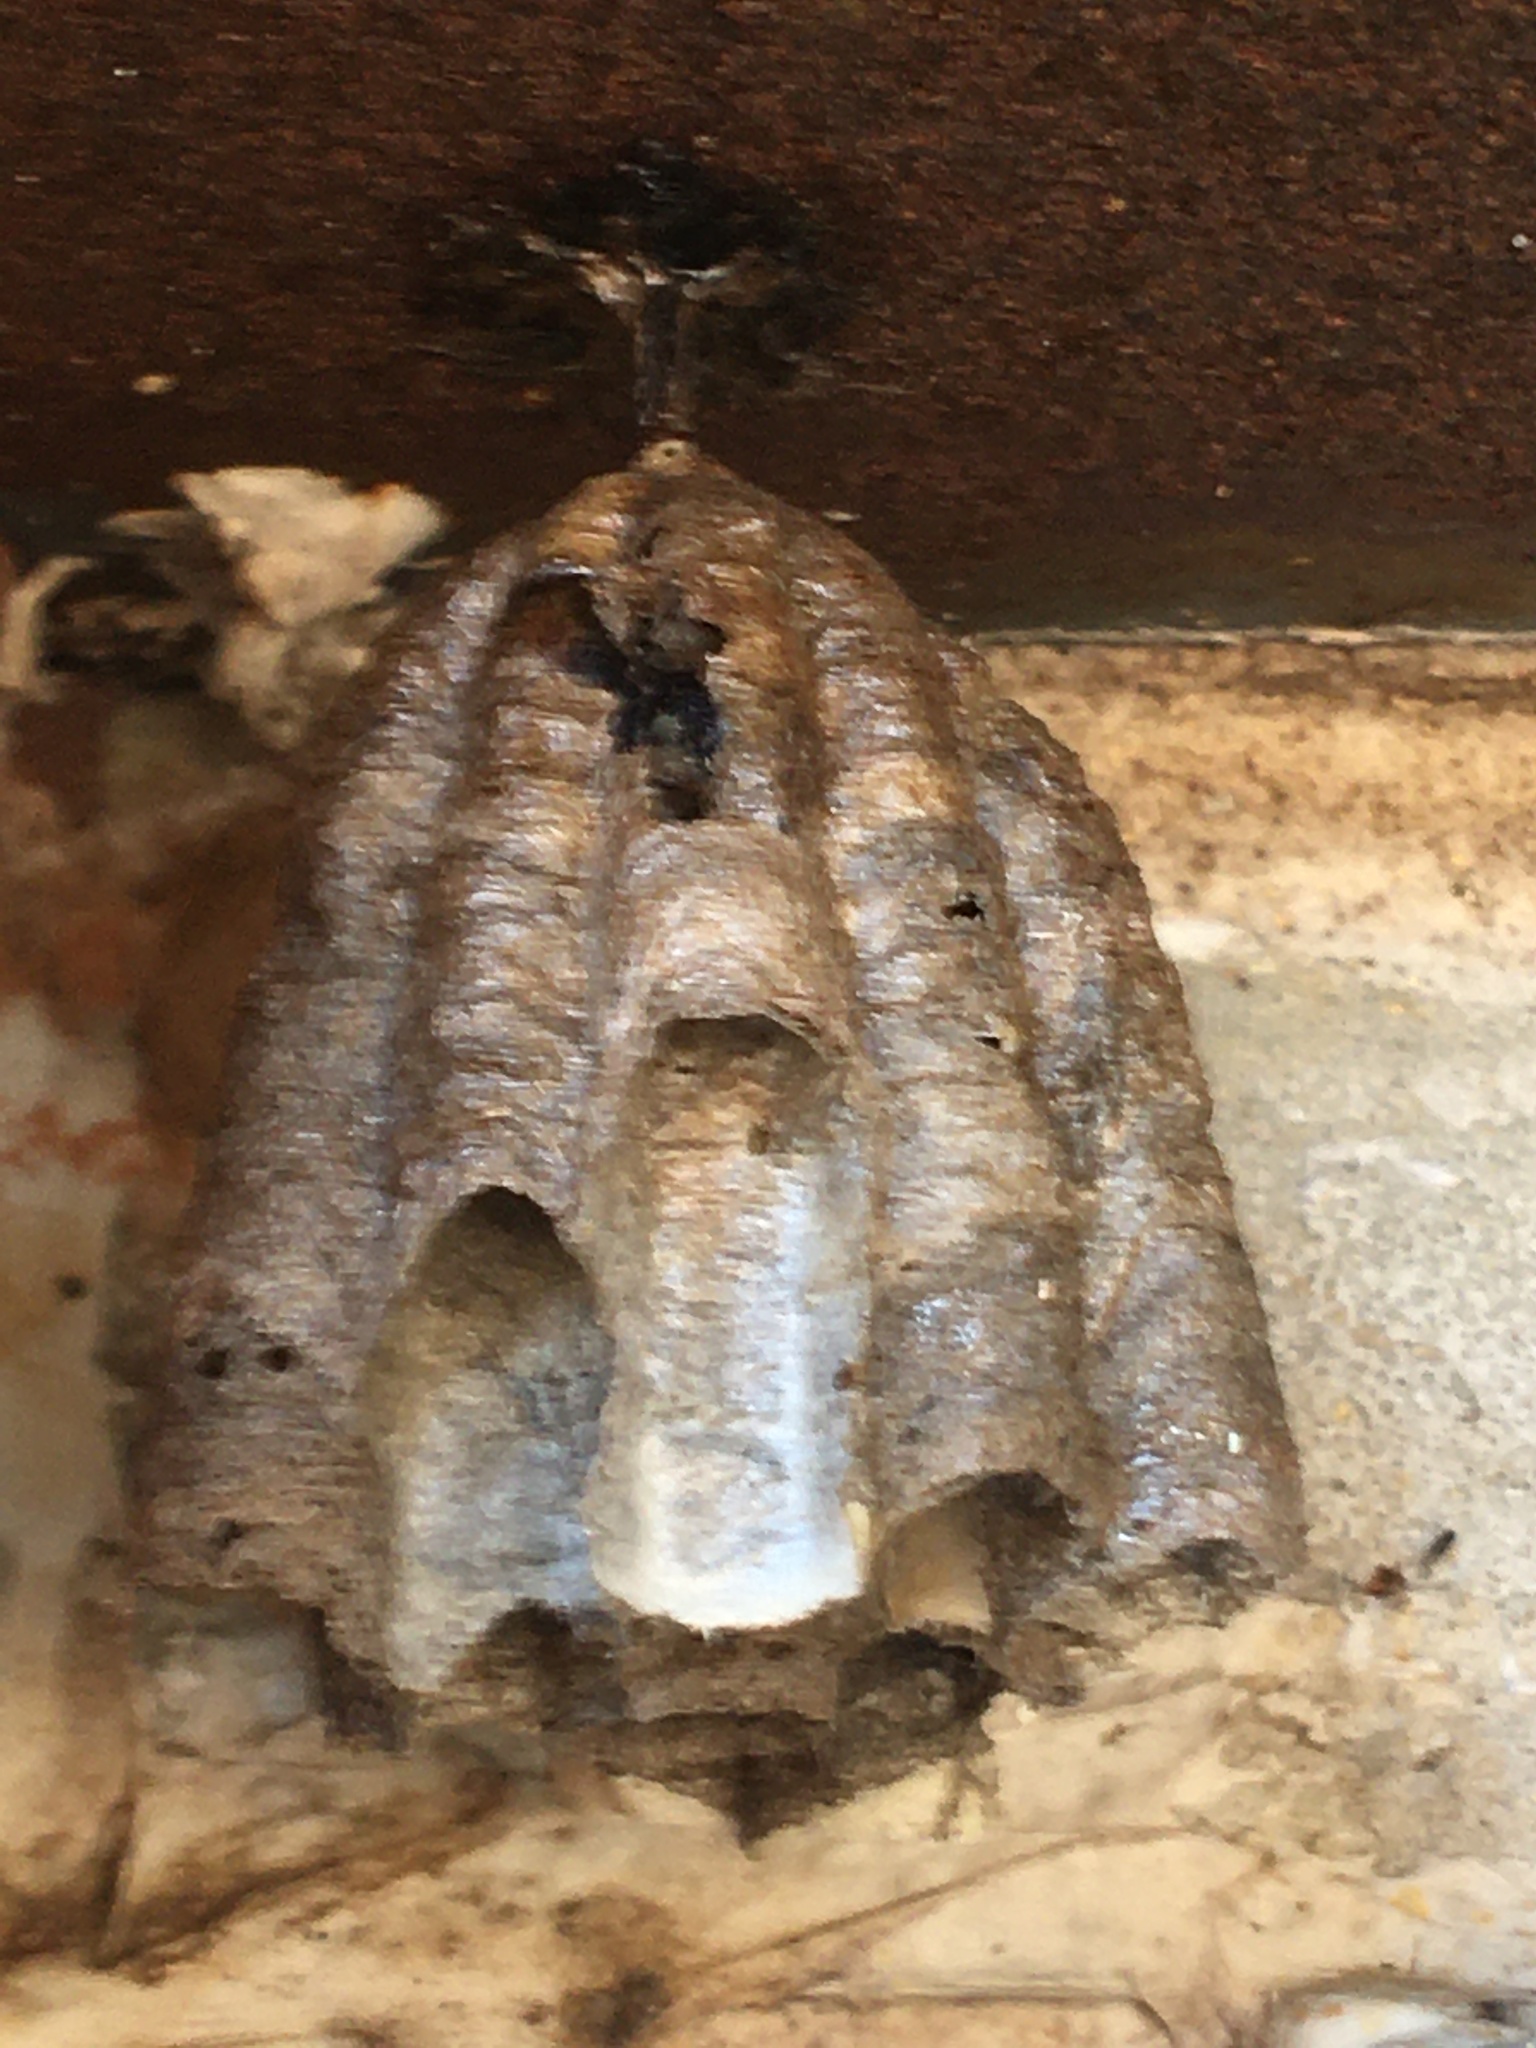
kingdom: Animalia
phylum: Arthropoda
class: Insecta
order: Hymenoptera
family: Vespidae
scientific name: Vespidae
